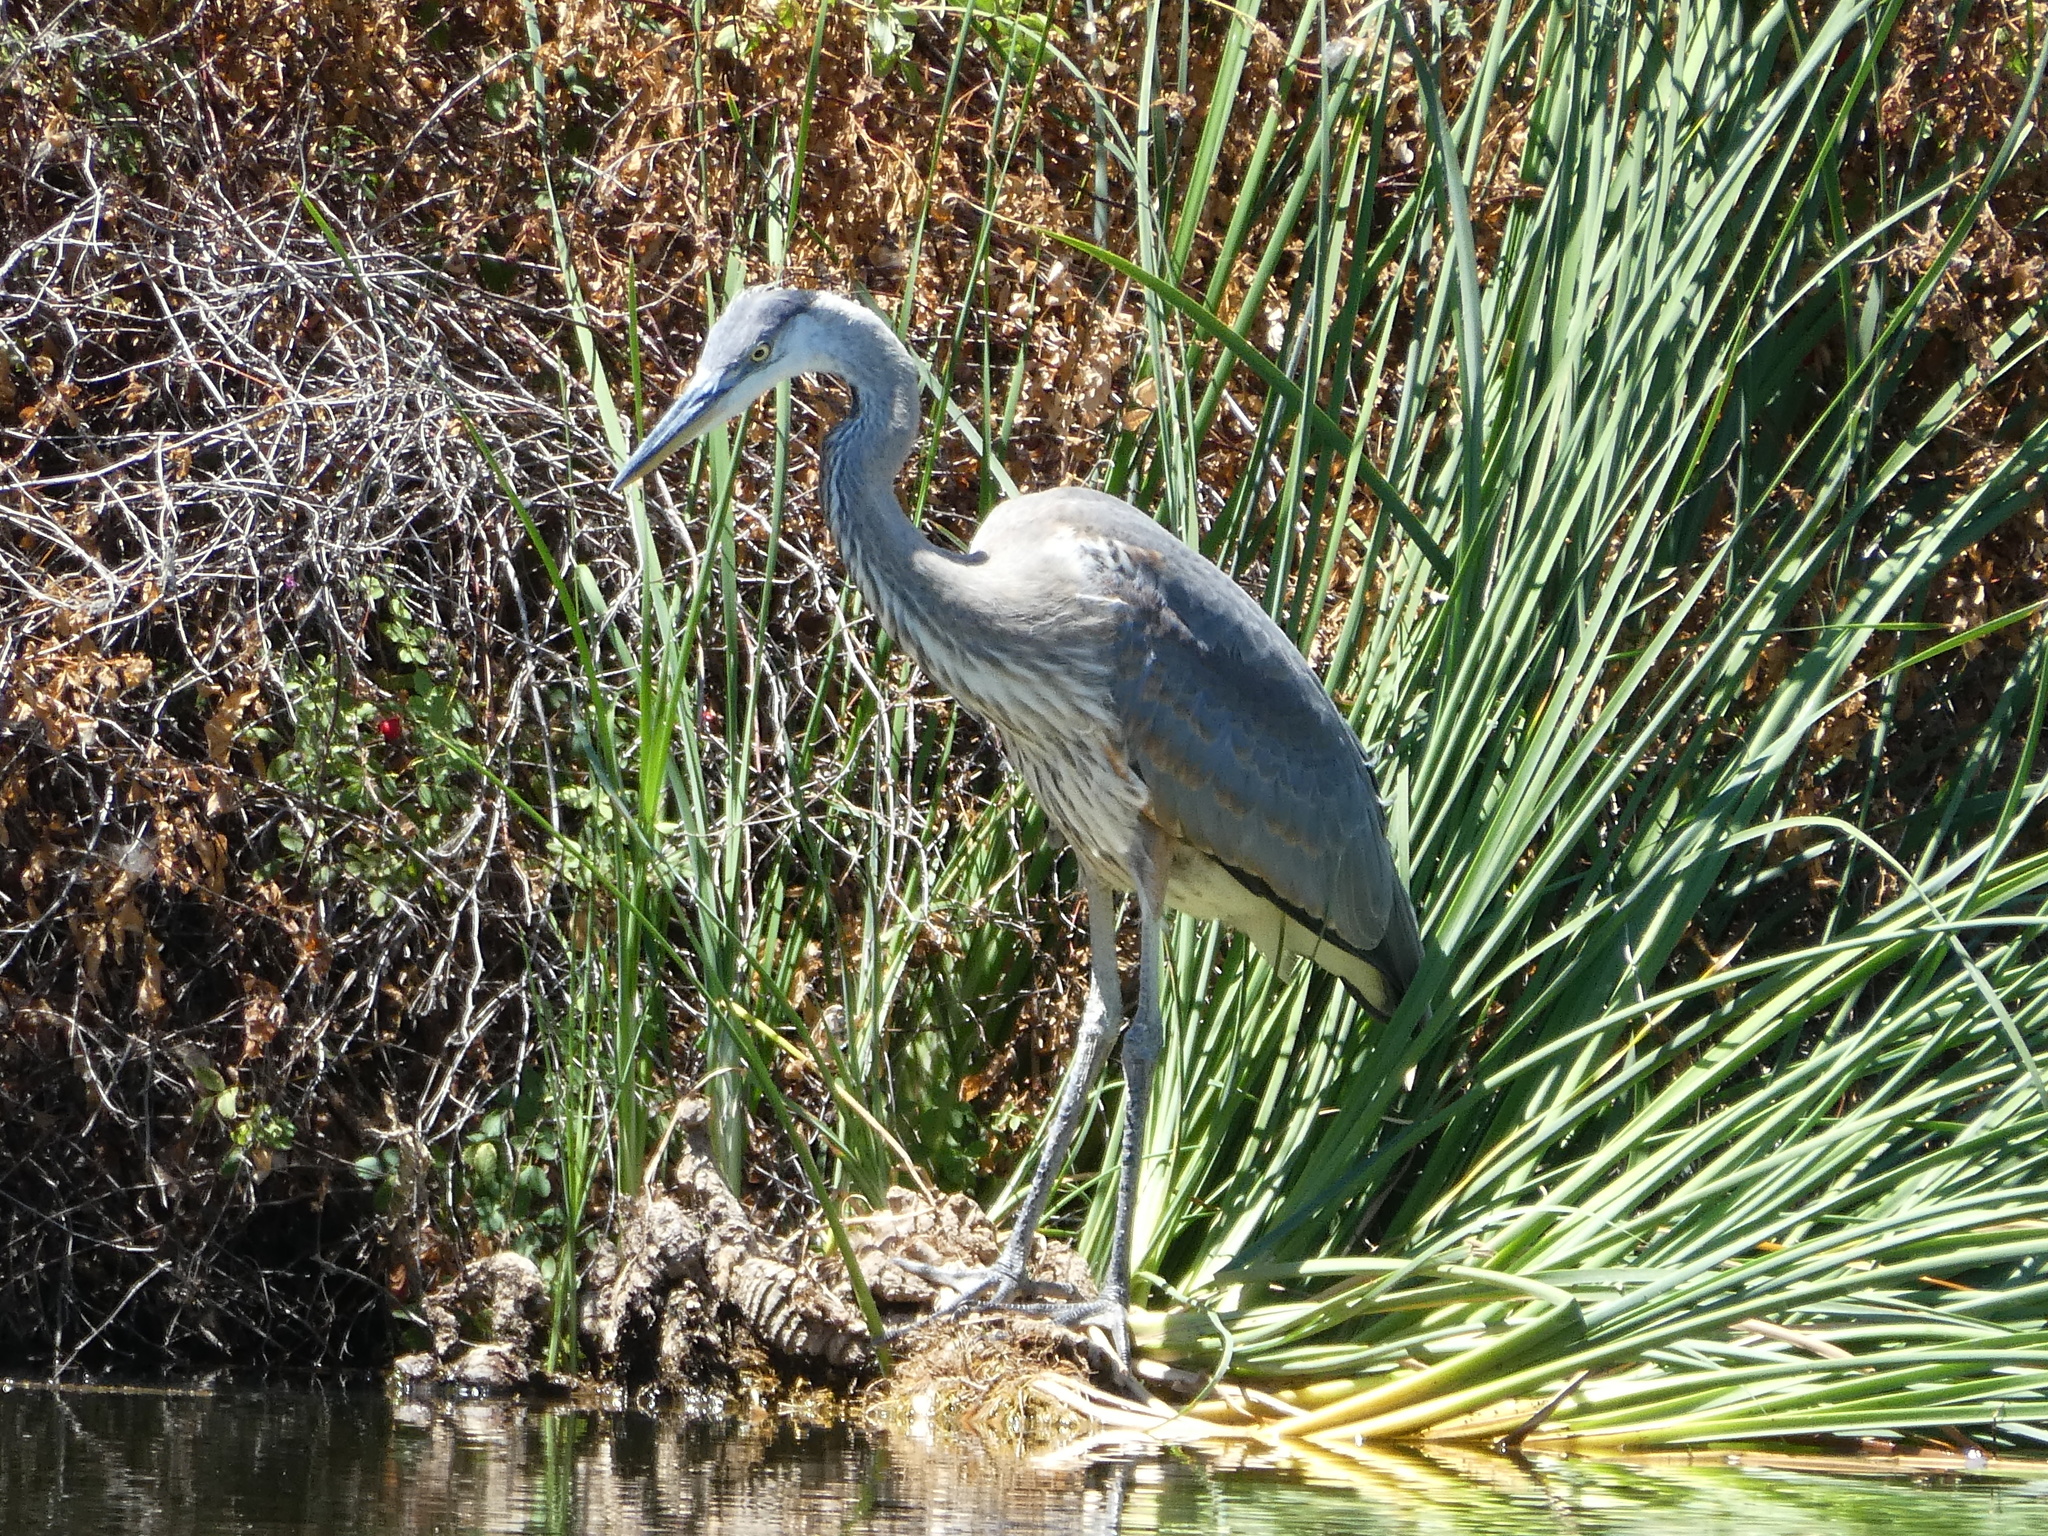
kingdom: Animalia
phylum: Chordata
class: Aves
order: Pelecaniformes
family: Ardeidae
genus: Ardea
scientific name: Ardea herodias
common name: Great blue heron
